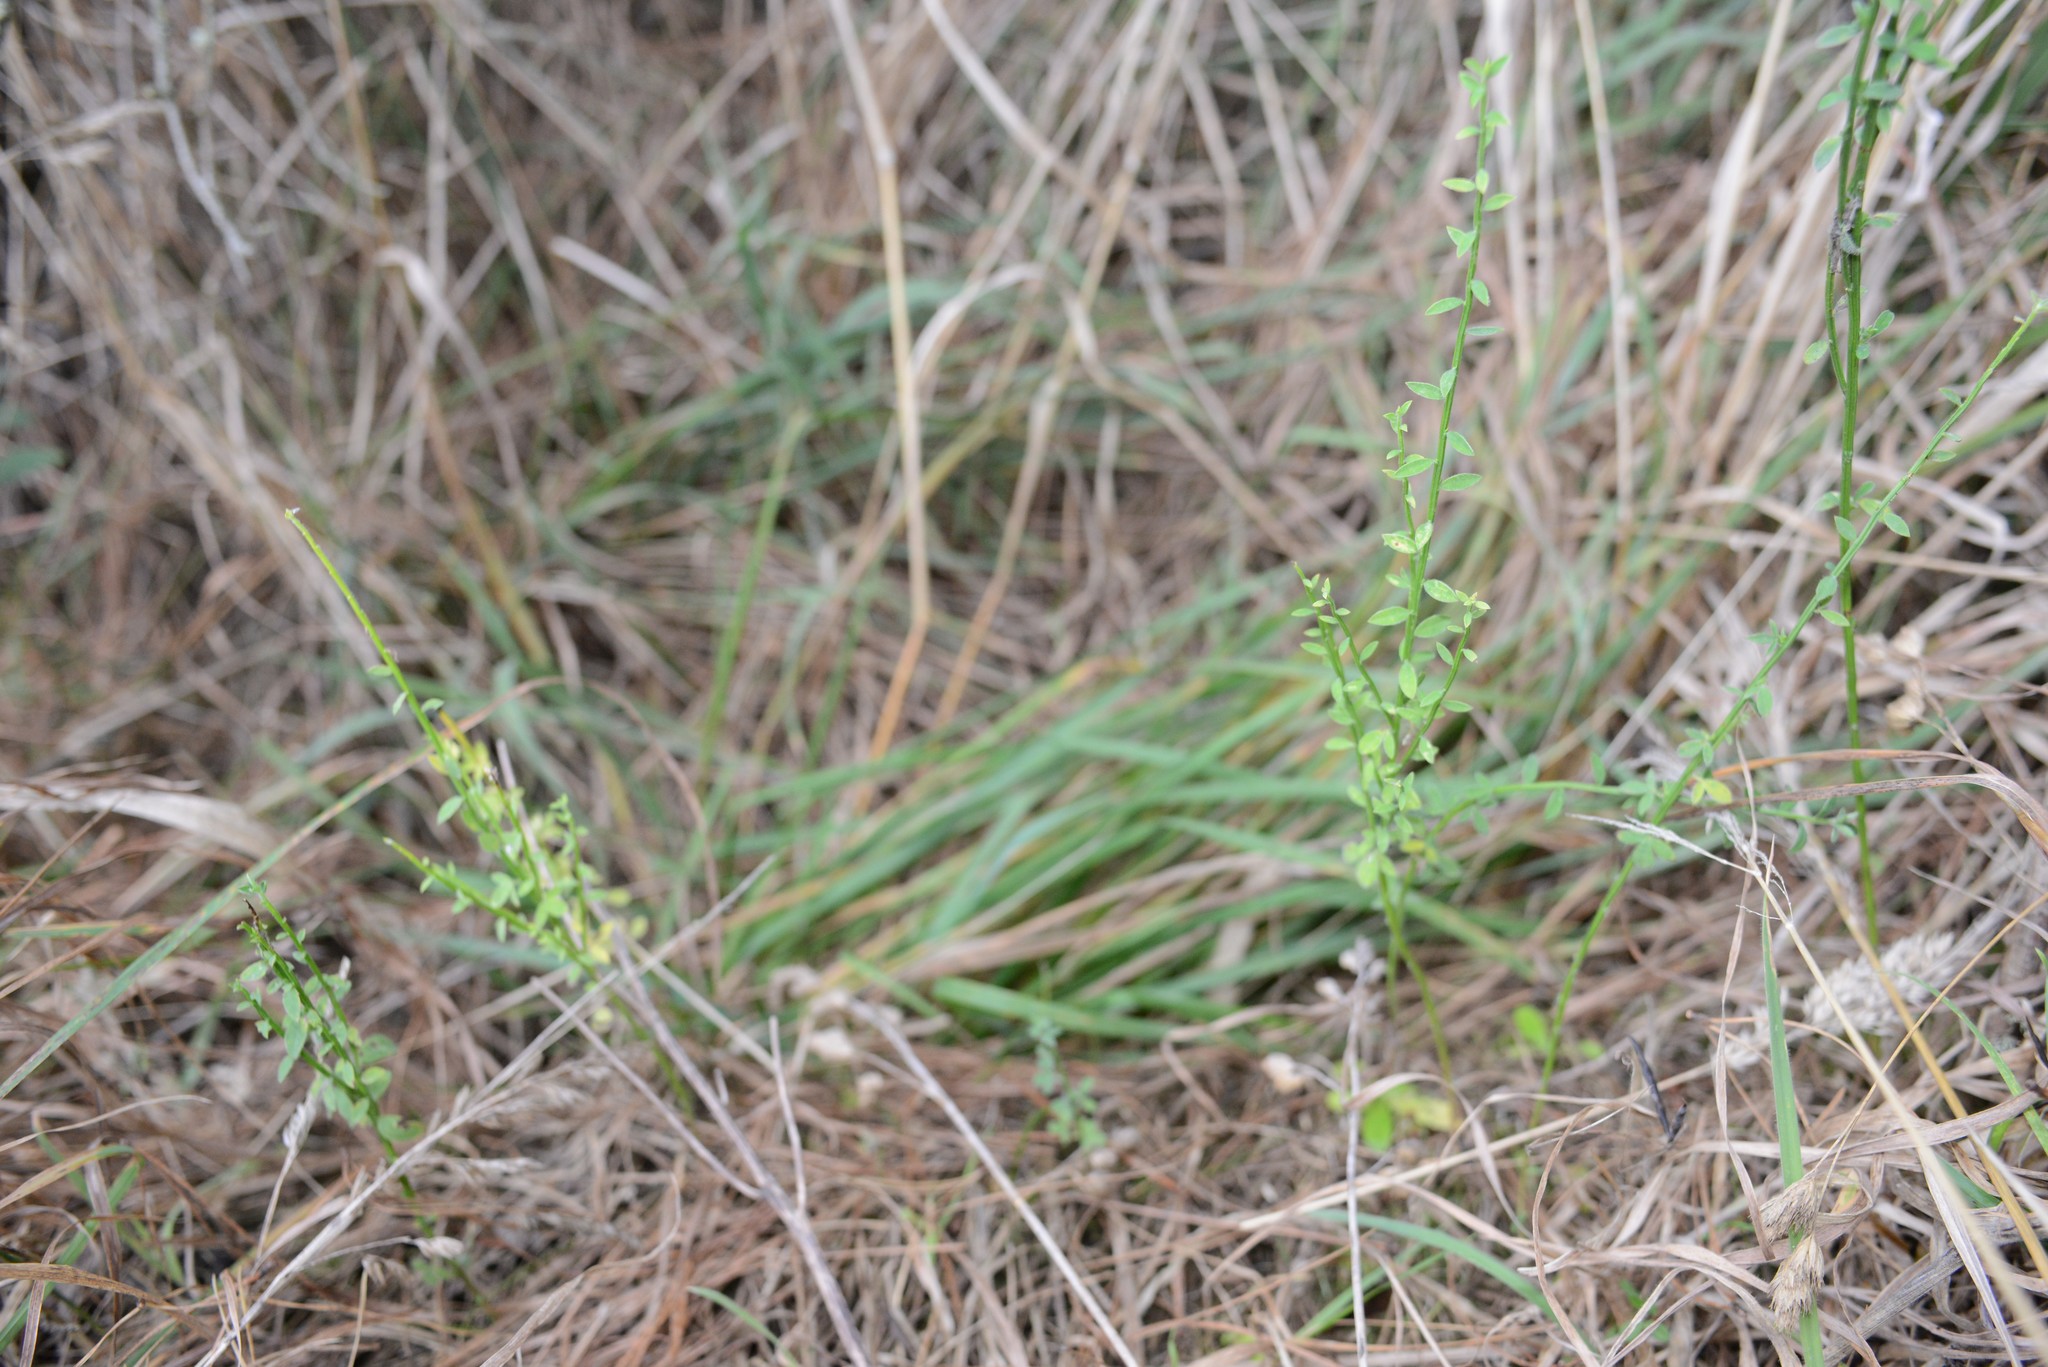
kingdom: Plantae
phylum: Tracheophyta
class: Magnoliopsida
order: Fabales
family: Fabaceae
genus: Cytisus
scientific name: Cytisus scoparius
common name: Scotch broom
